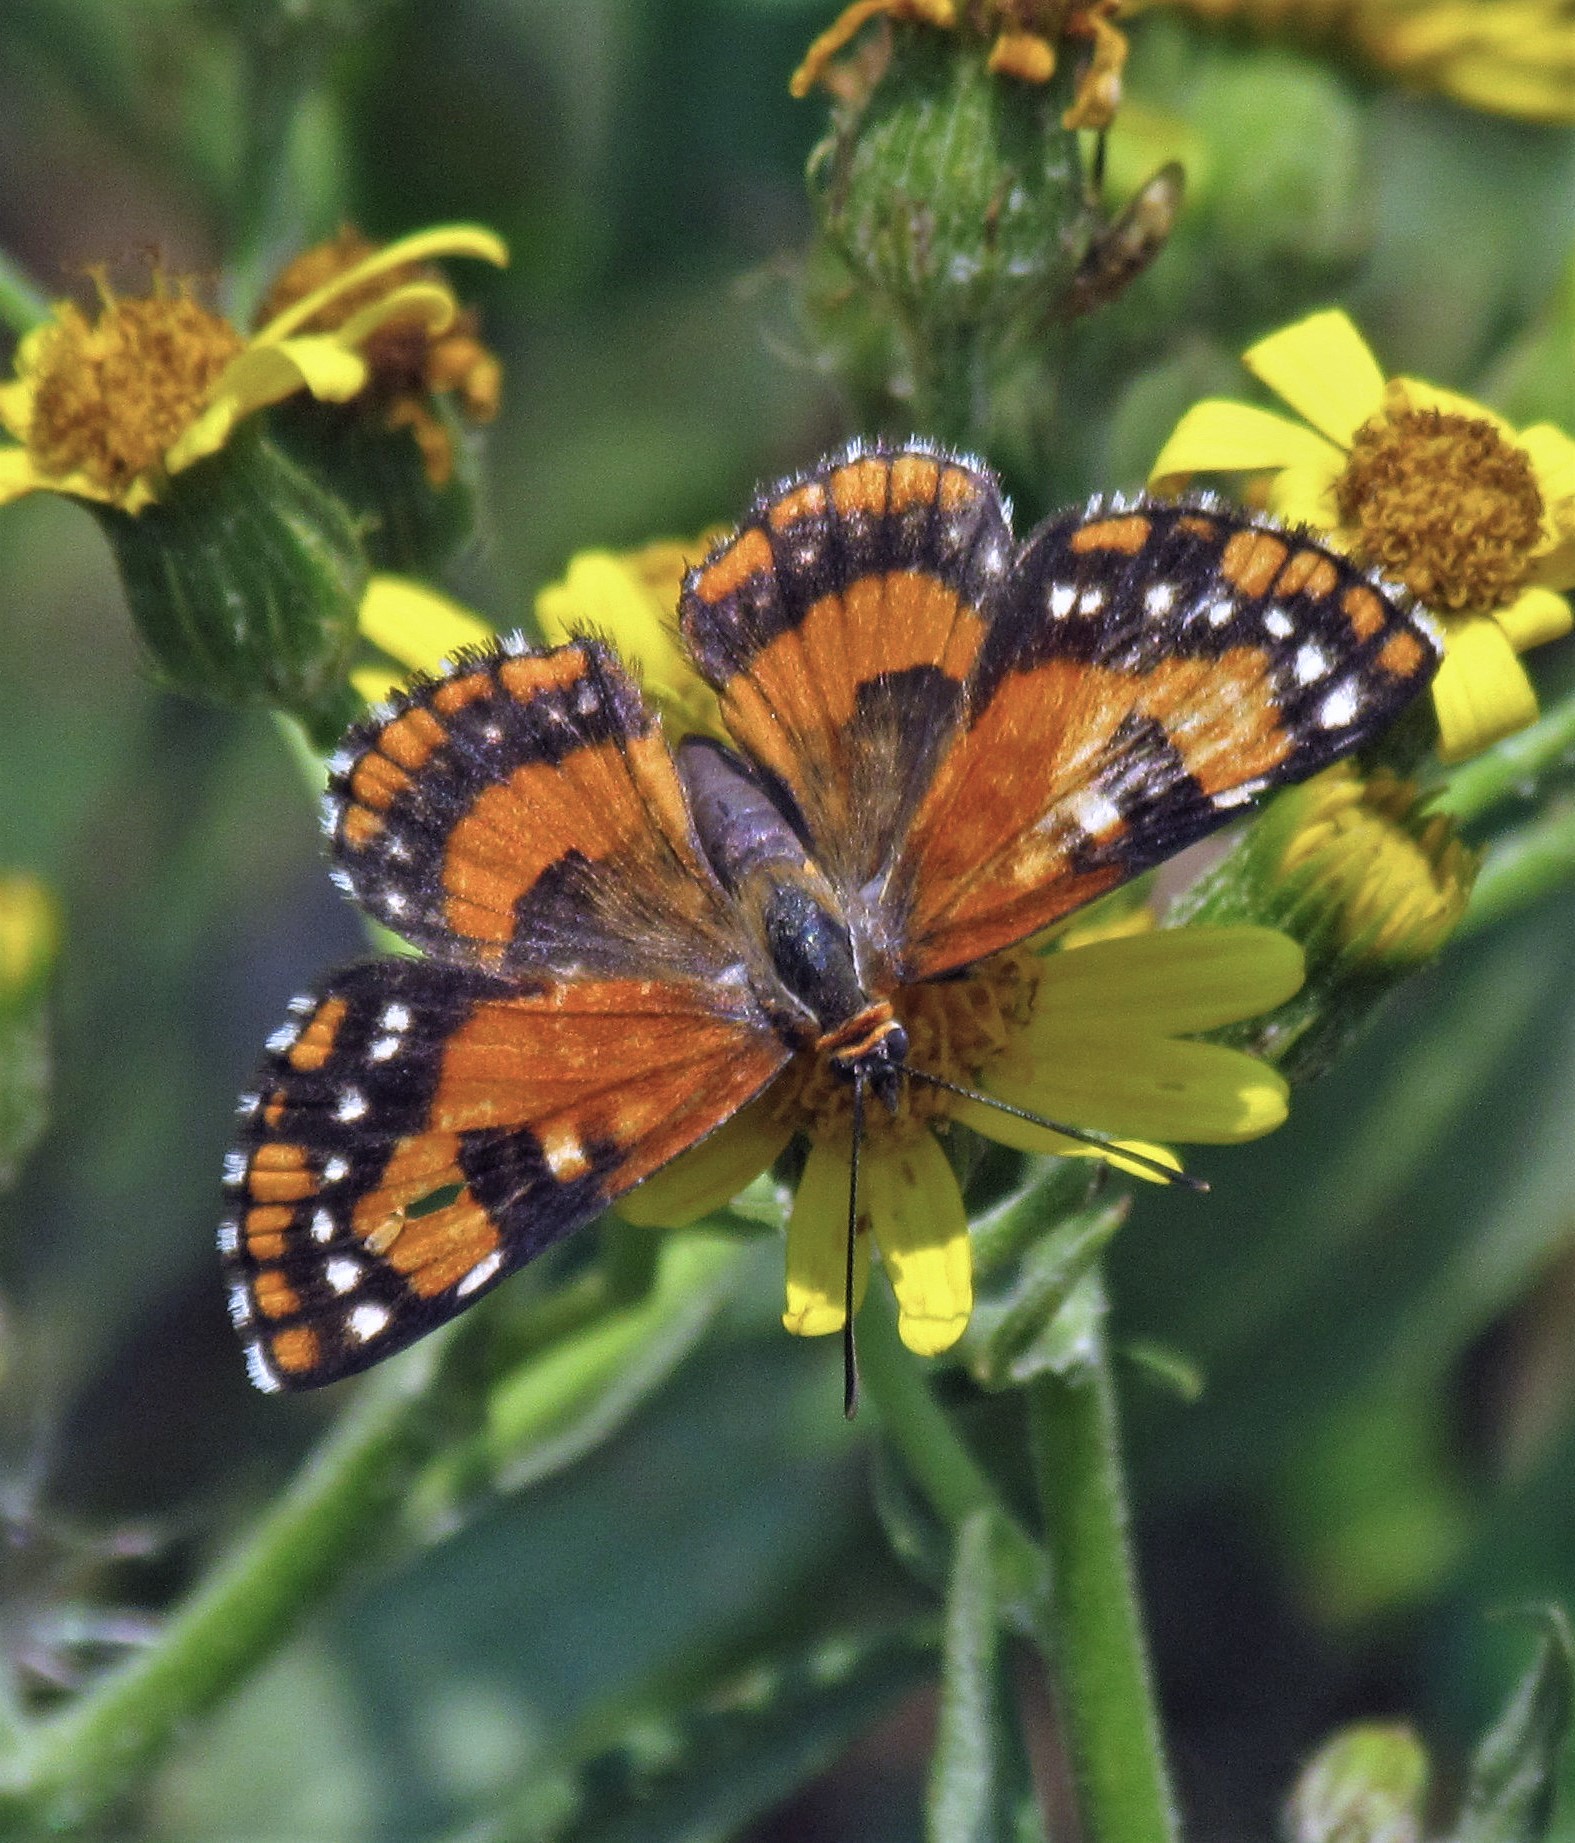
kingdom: Animalia
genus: Lemonias
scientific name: Lemonias
